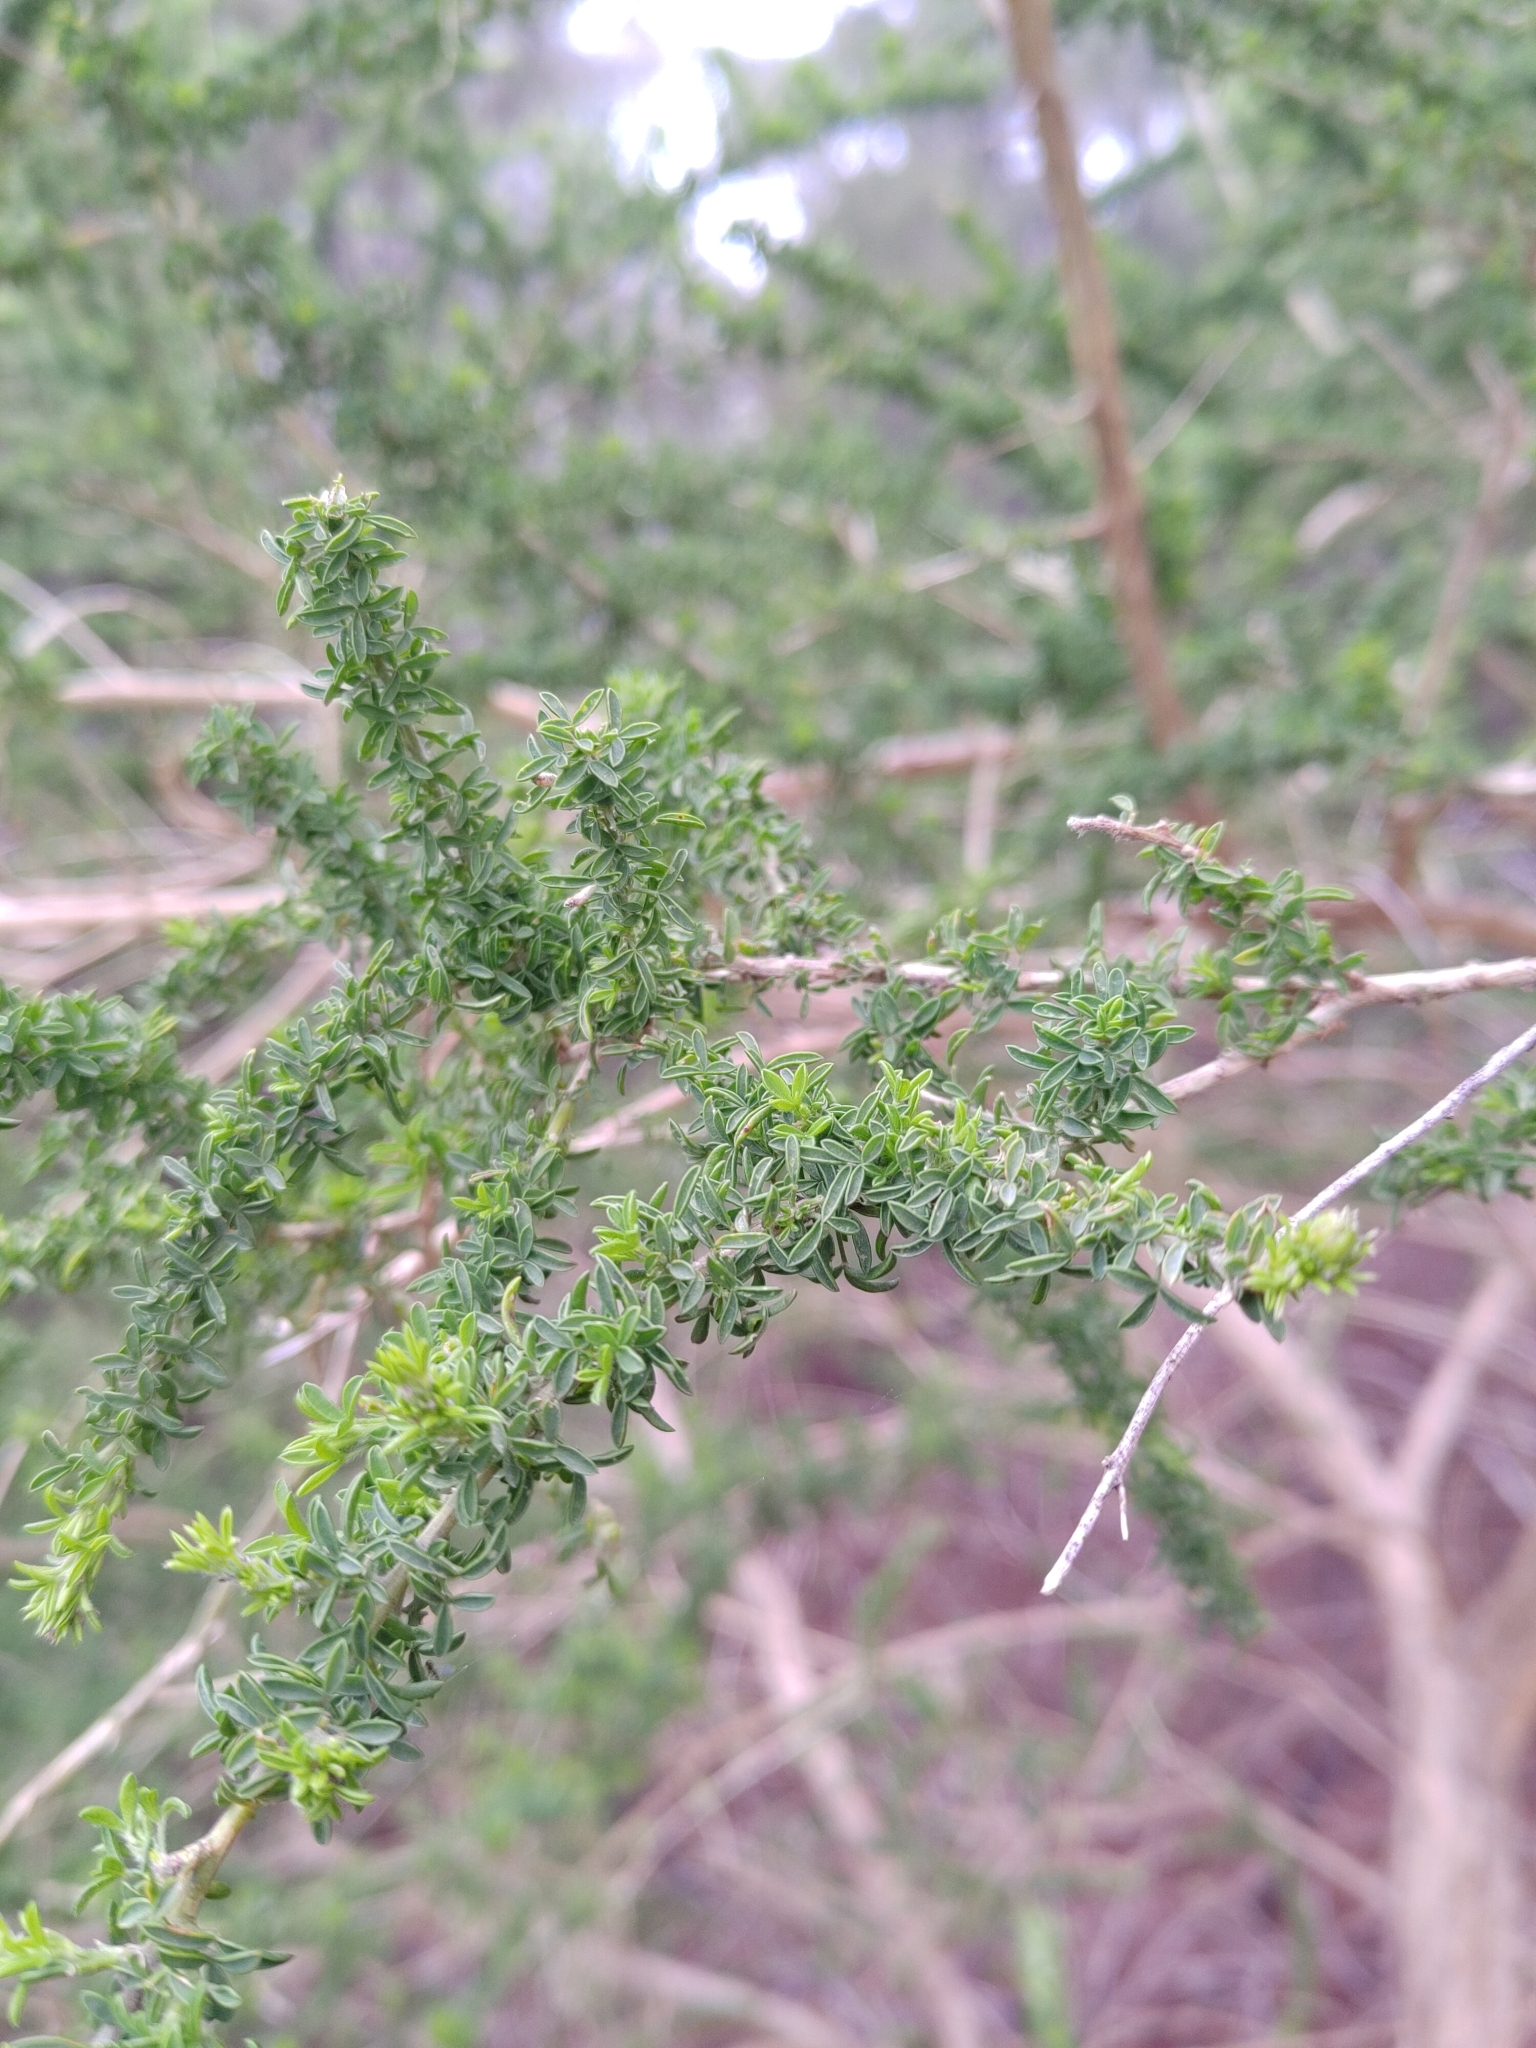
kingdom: Plantae
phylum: Tracheophyta
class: Magnoliopsida
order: Fabales
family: Fabaceae
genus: Adenocarpus
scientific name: Adenocarpus foliolosus
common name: Canary island flatpod
